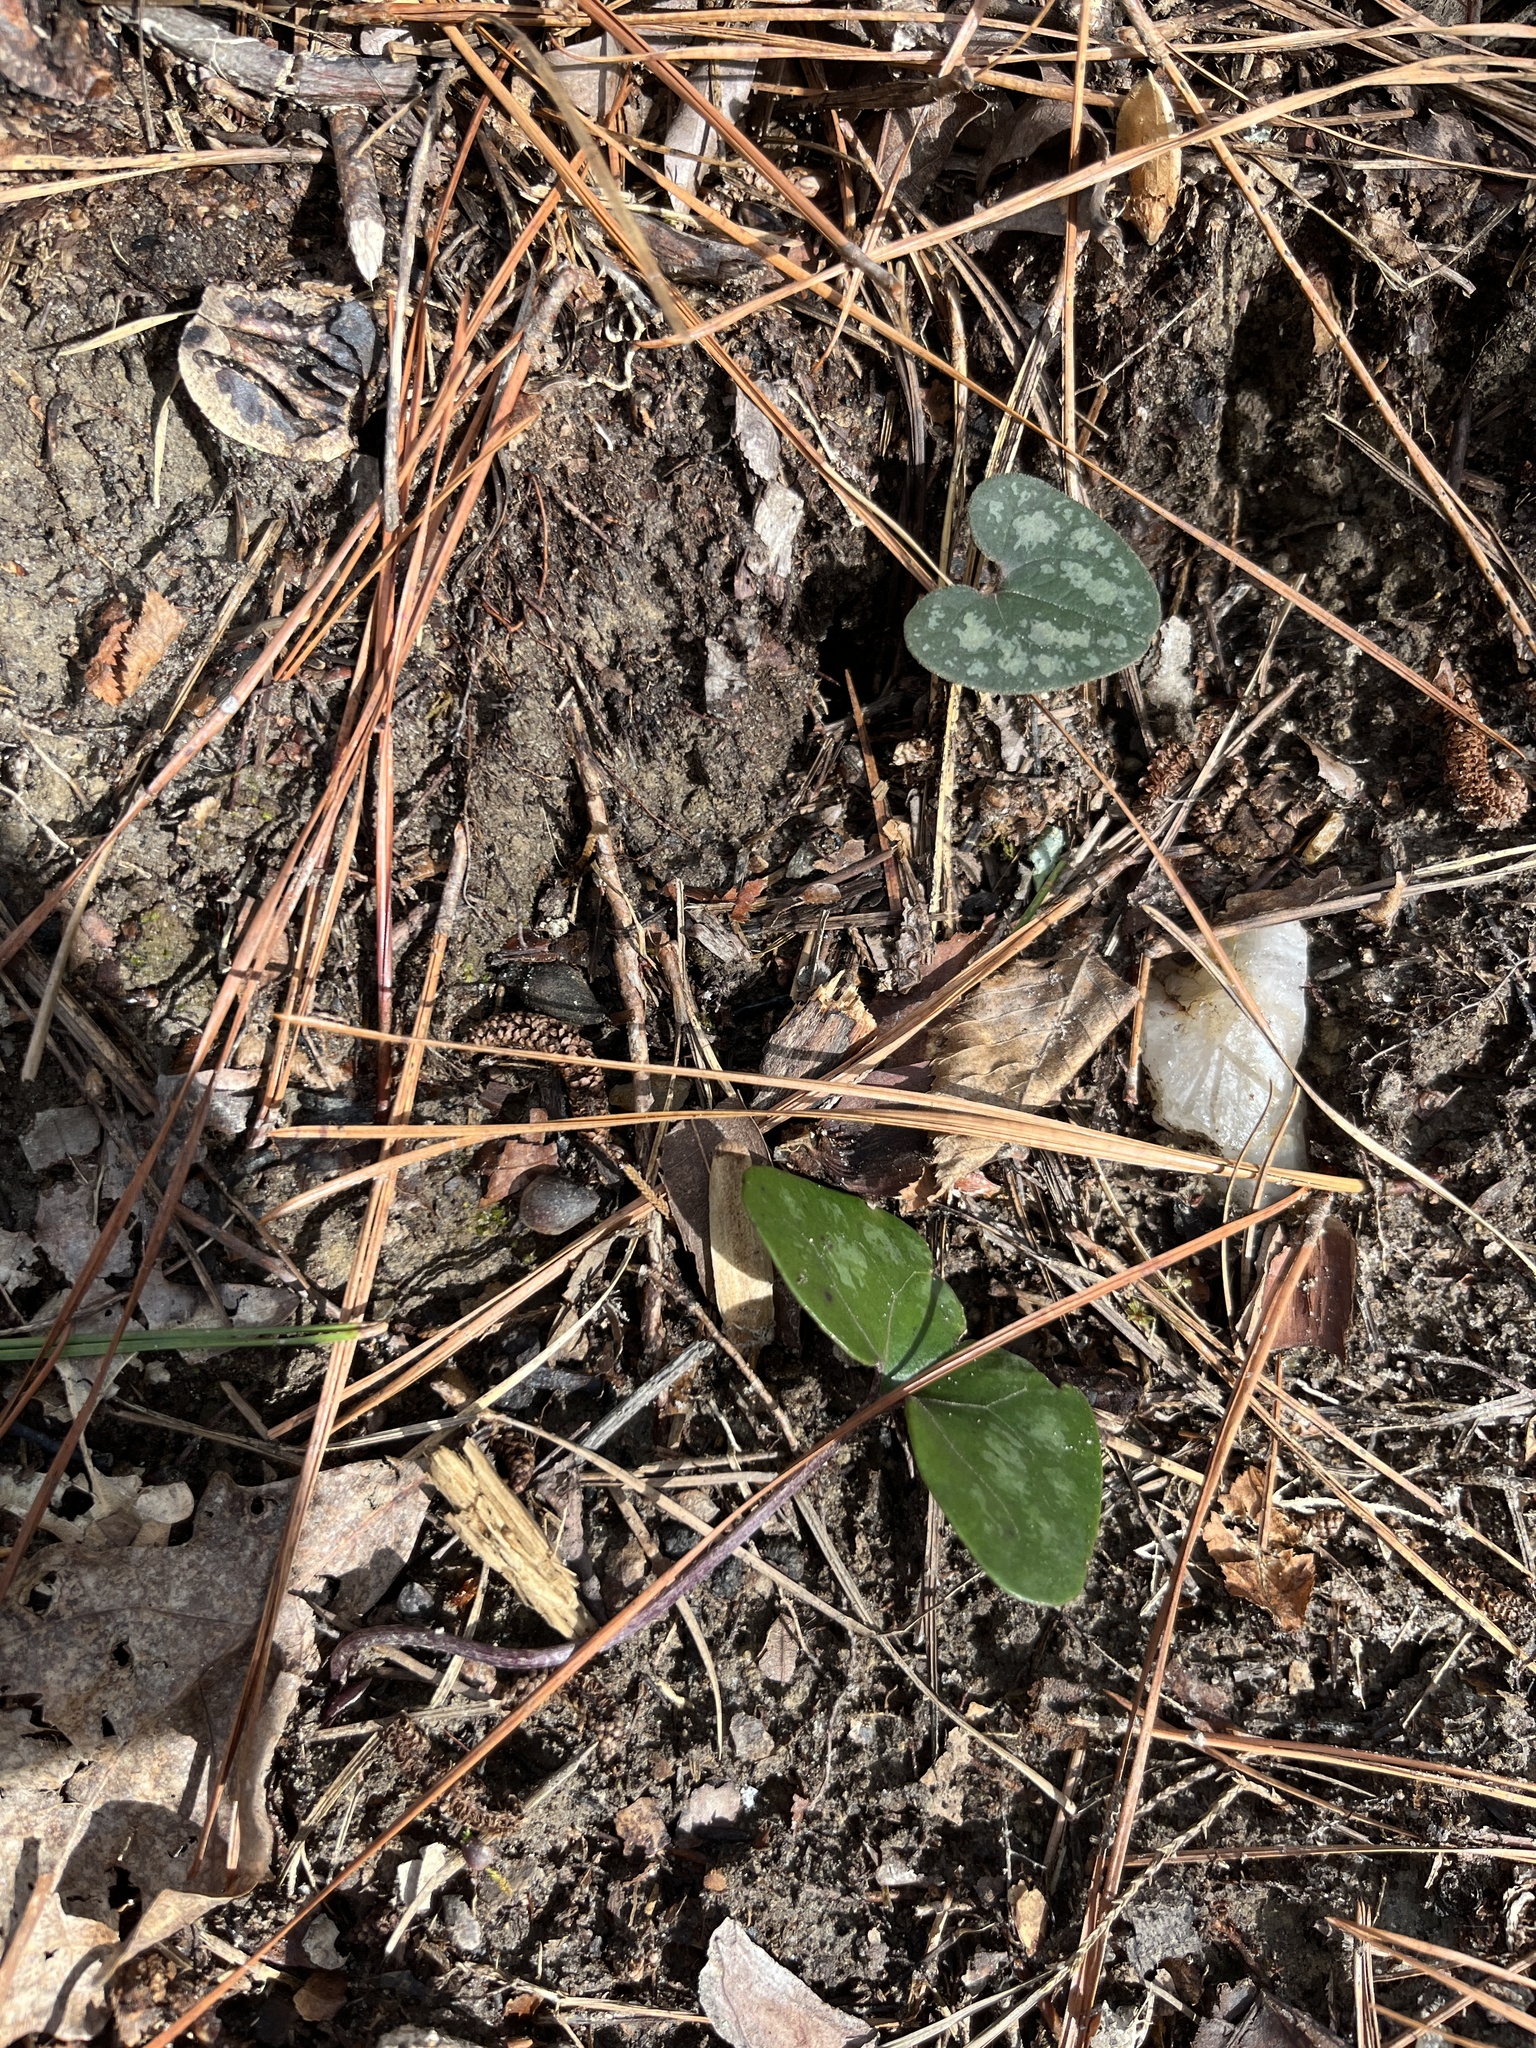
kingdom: Plantae
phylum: Tracheophyta
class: Magnoliopsida
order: Piperales
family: Aristolochiaceae
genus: Hexastylis
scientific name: Hexastylis arifolia
